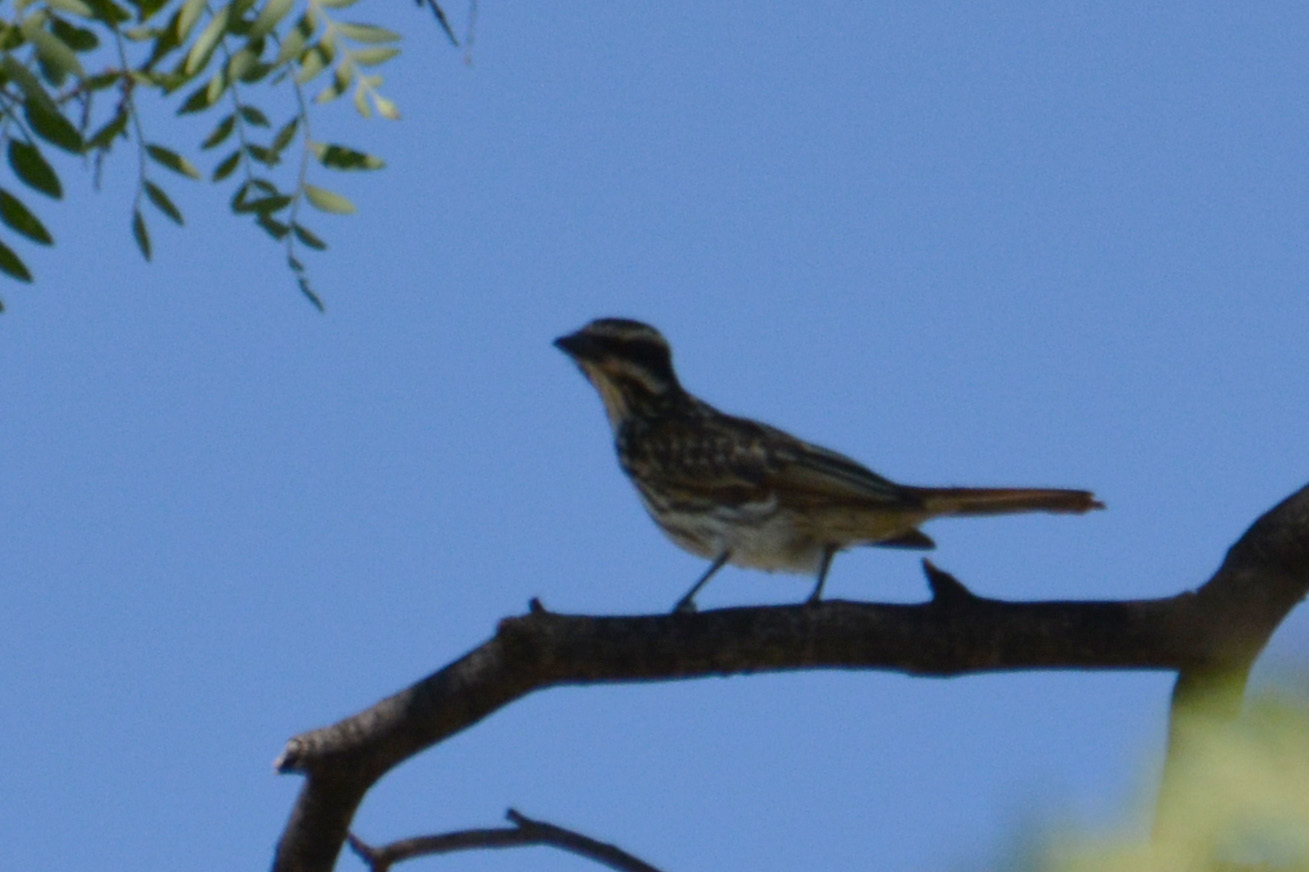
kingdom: Animalia
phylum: Chordata
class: Aves
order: Passeriformes
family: Tyrannidae
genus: Myiodynastes
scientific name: Myiodynastes maculatus
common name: Streaked flycatcher
